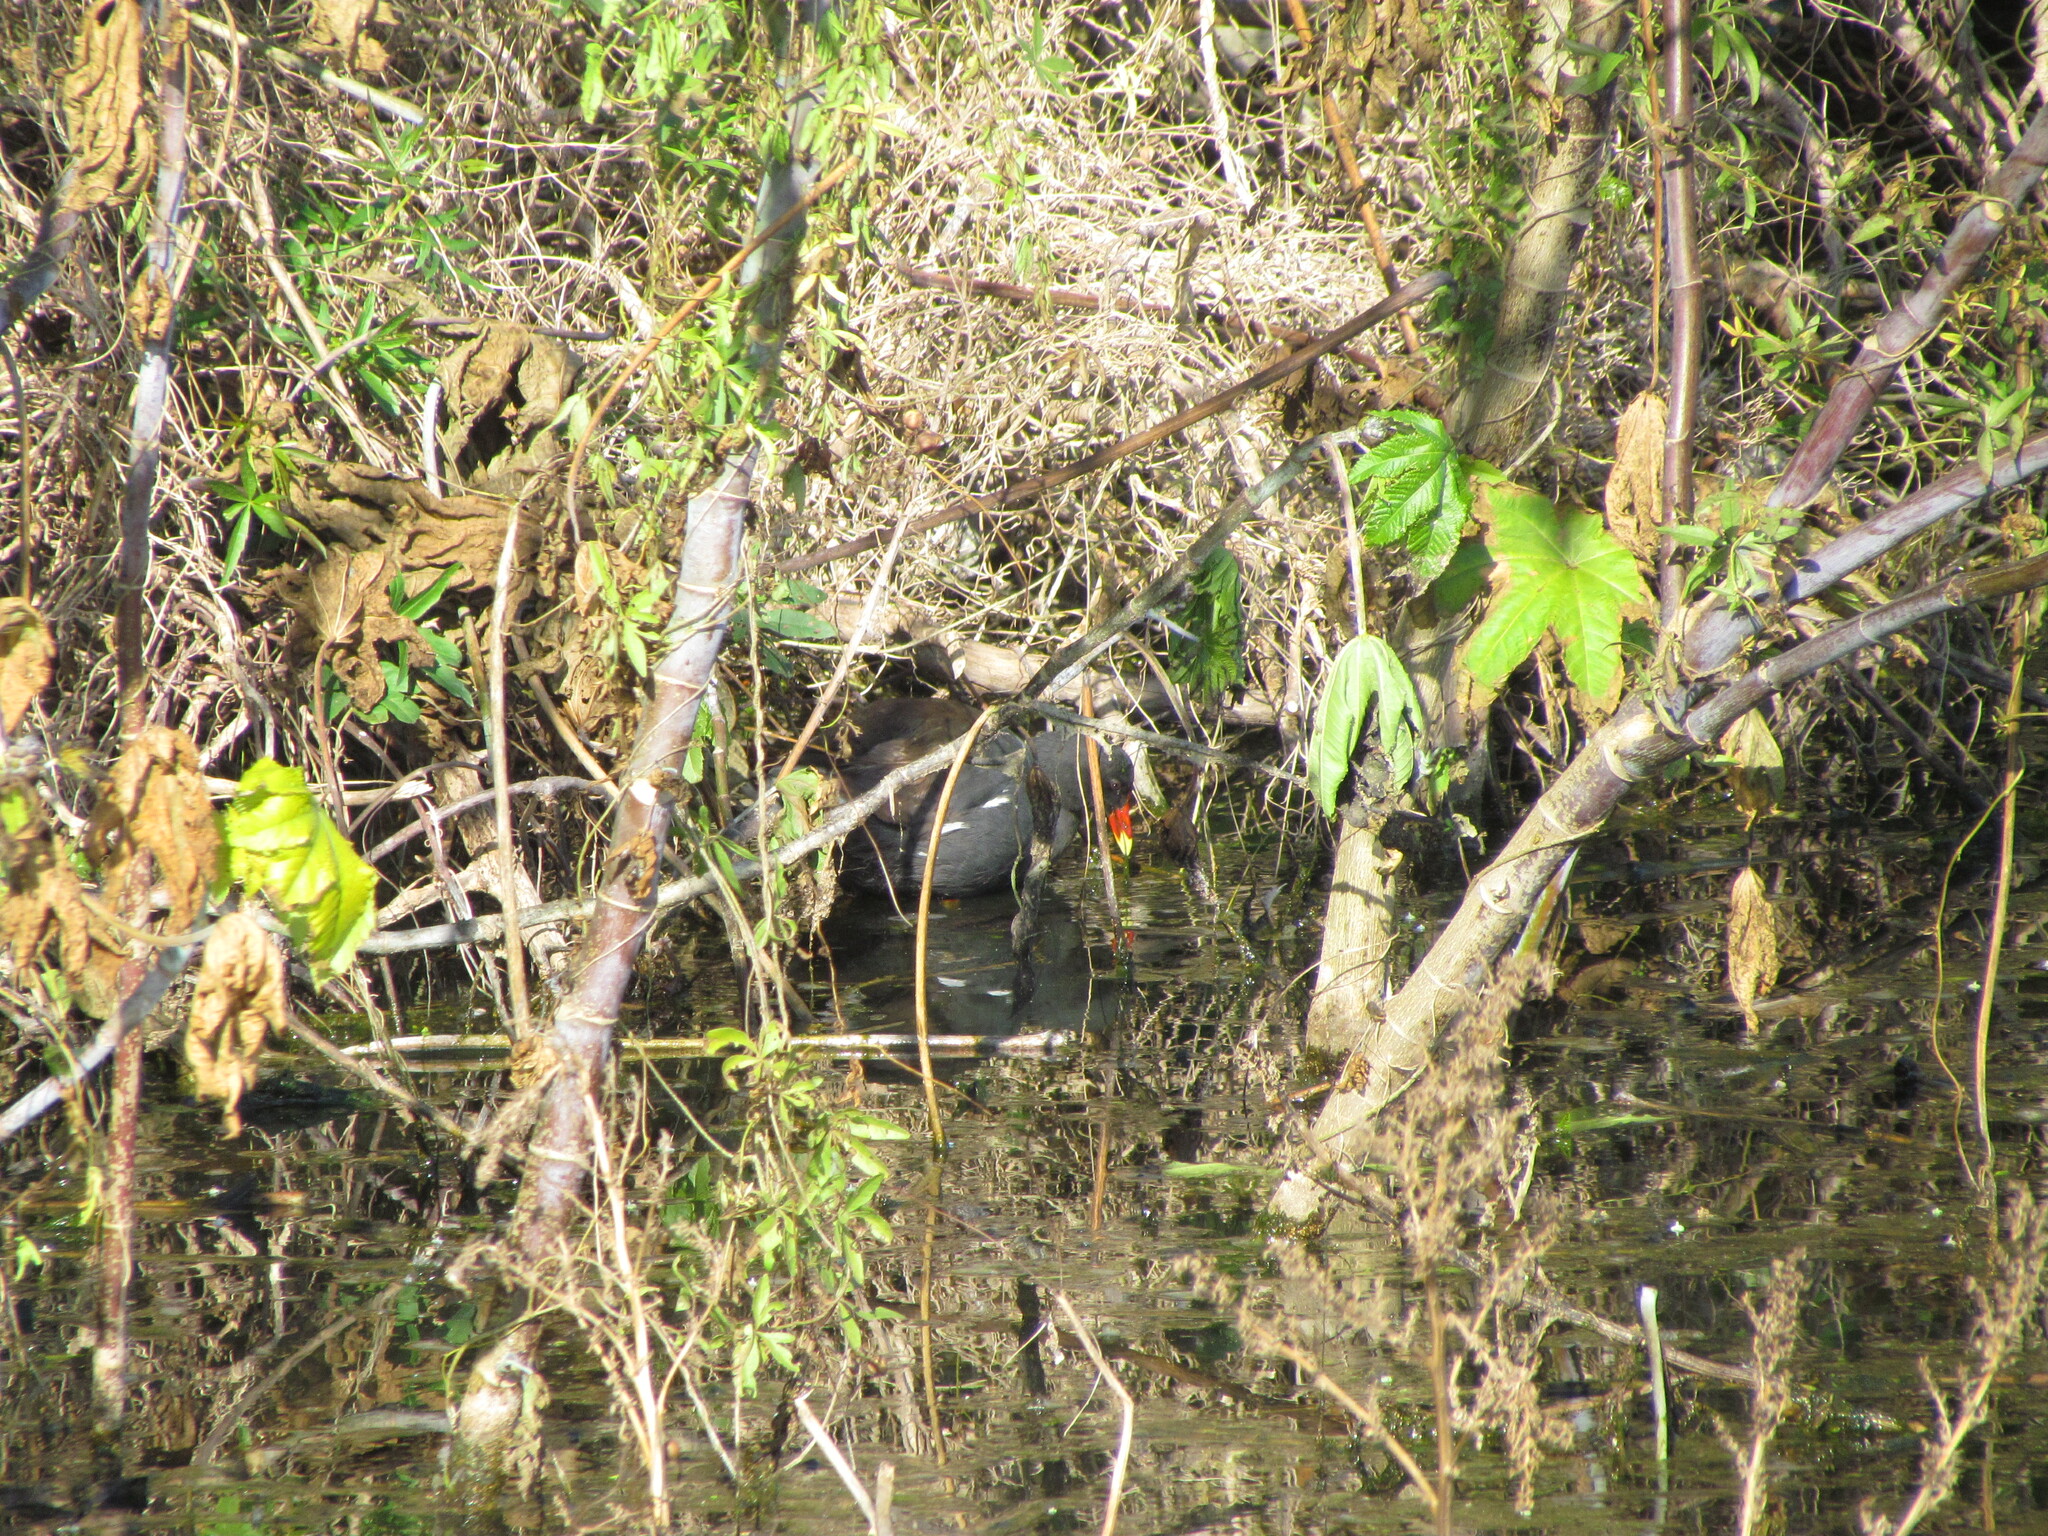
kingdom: Animalia
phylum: Chordata
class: Aves
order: Gruiformes
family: Rallidae
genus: Gallinula
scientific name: Gallinula chloropus
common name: Common moorhen
